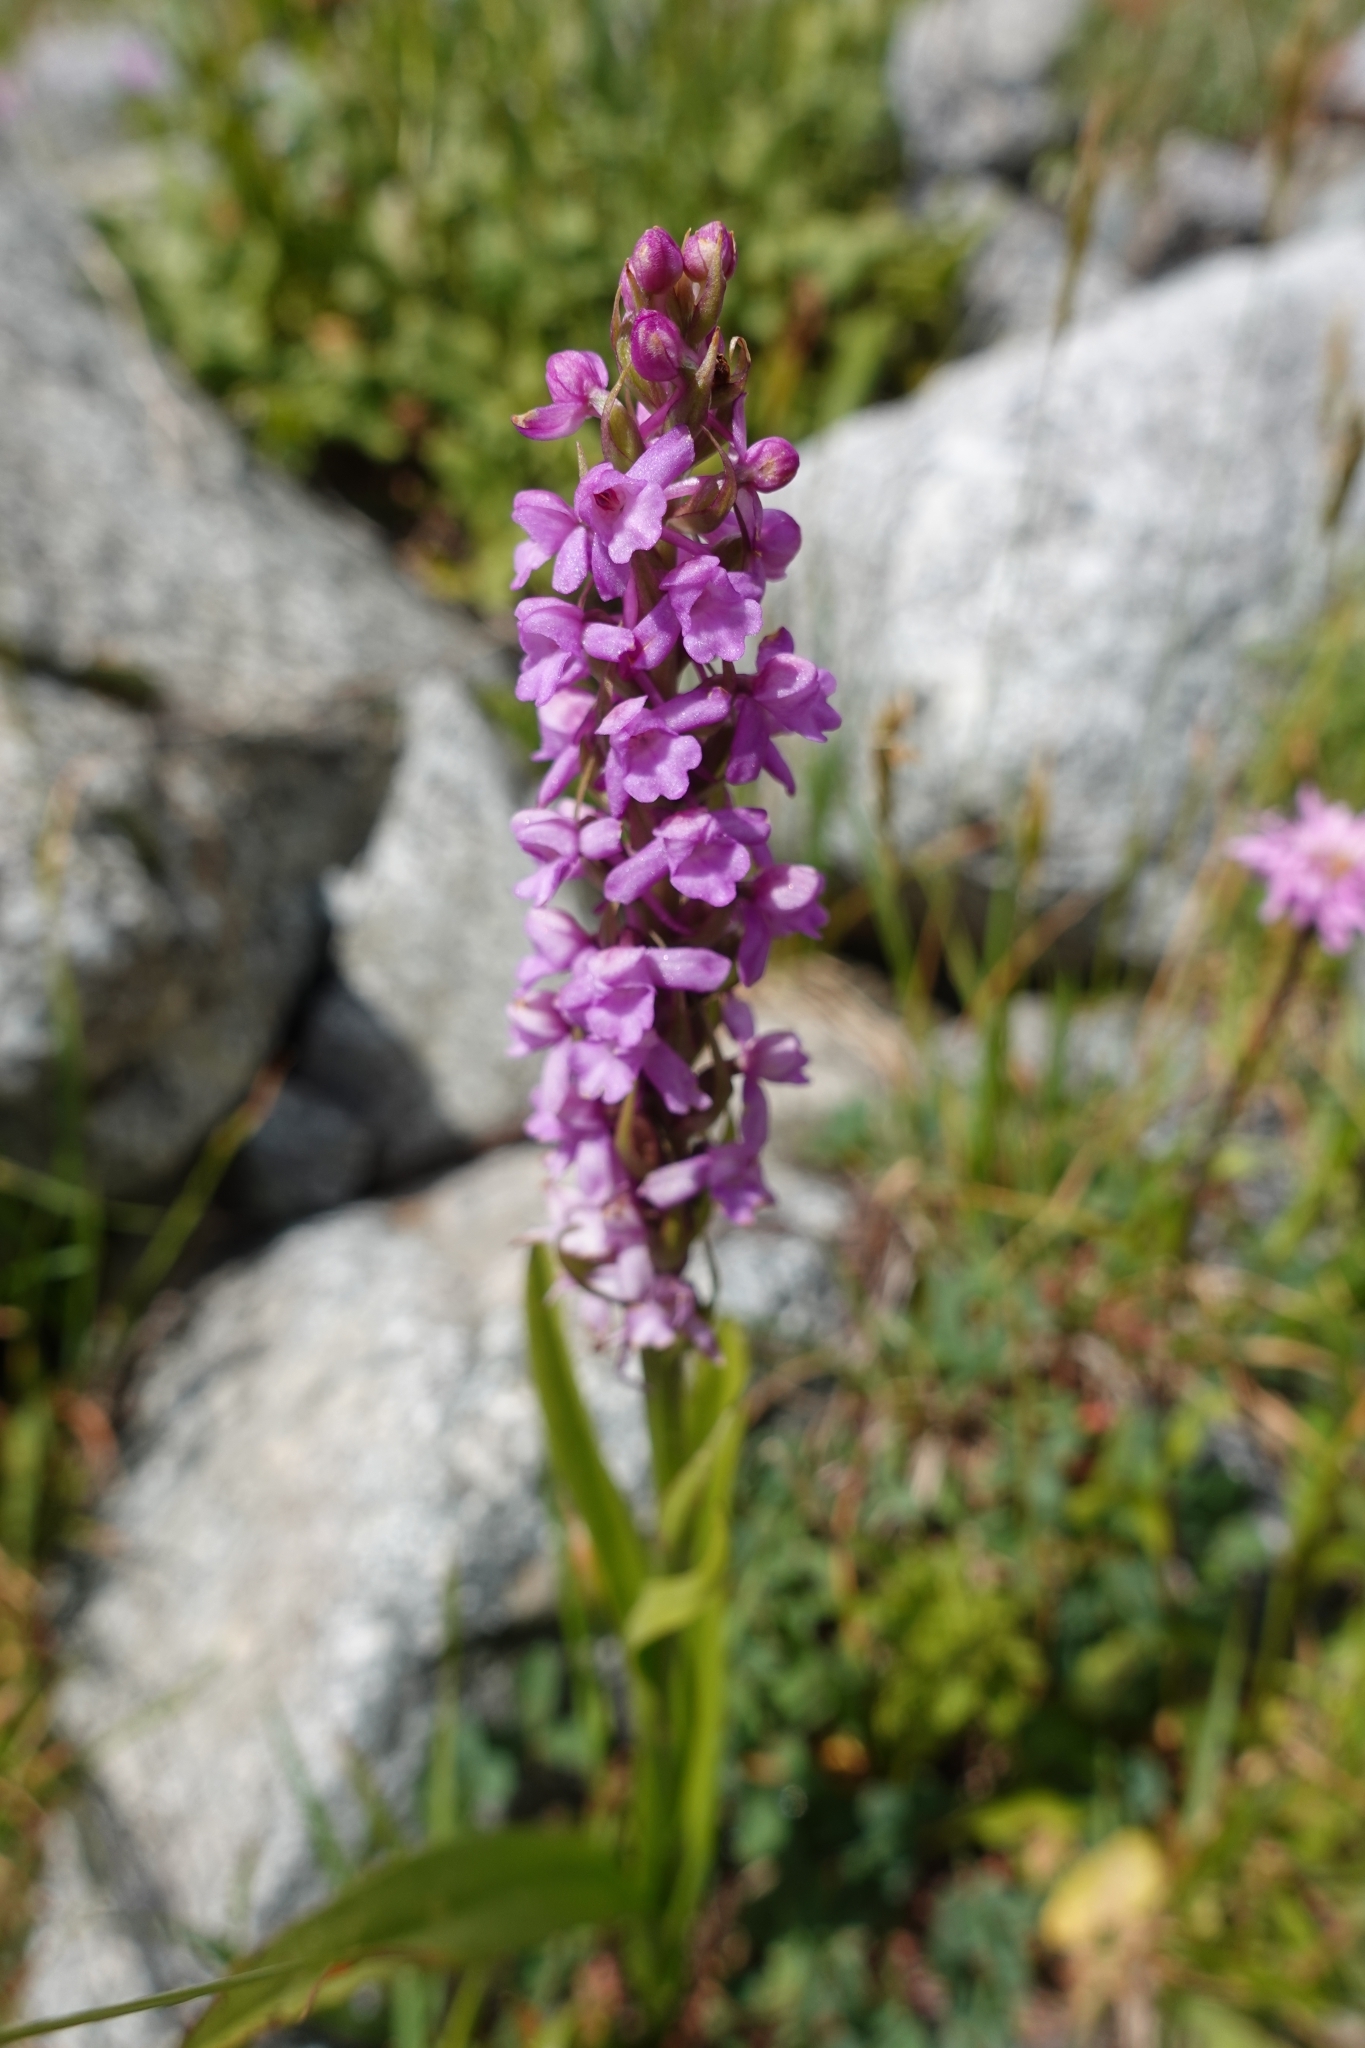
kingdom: Plantae
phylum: Tracheophyta
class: Liliopsida
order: Asparagales
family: Orchidaceae
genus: Gymnadenia
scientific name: Gymnadenia conopsea
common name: Fragrant orchid
